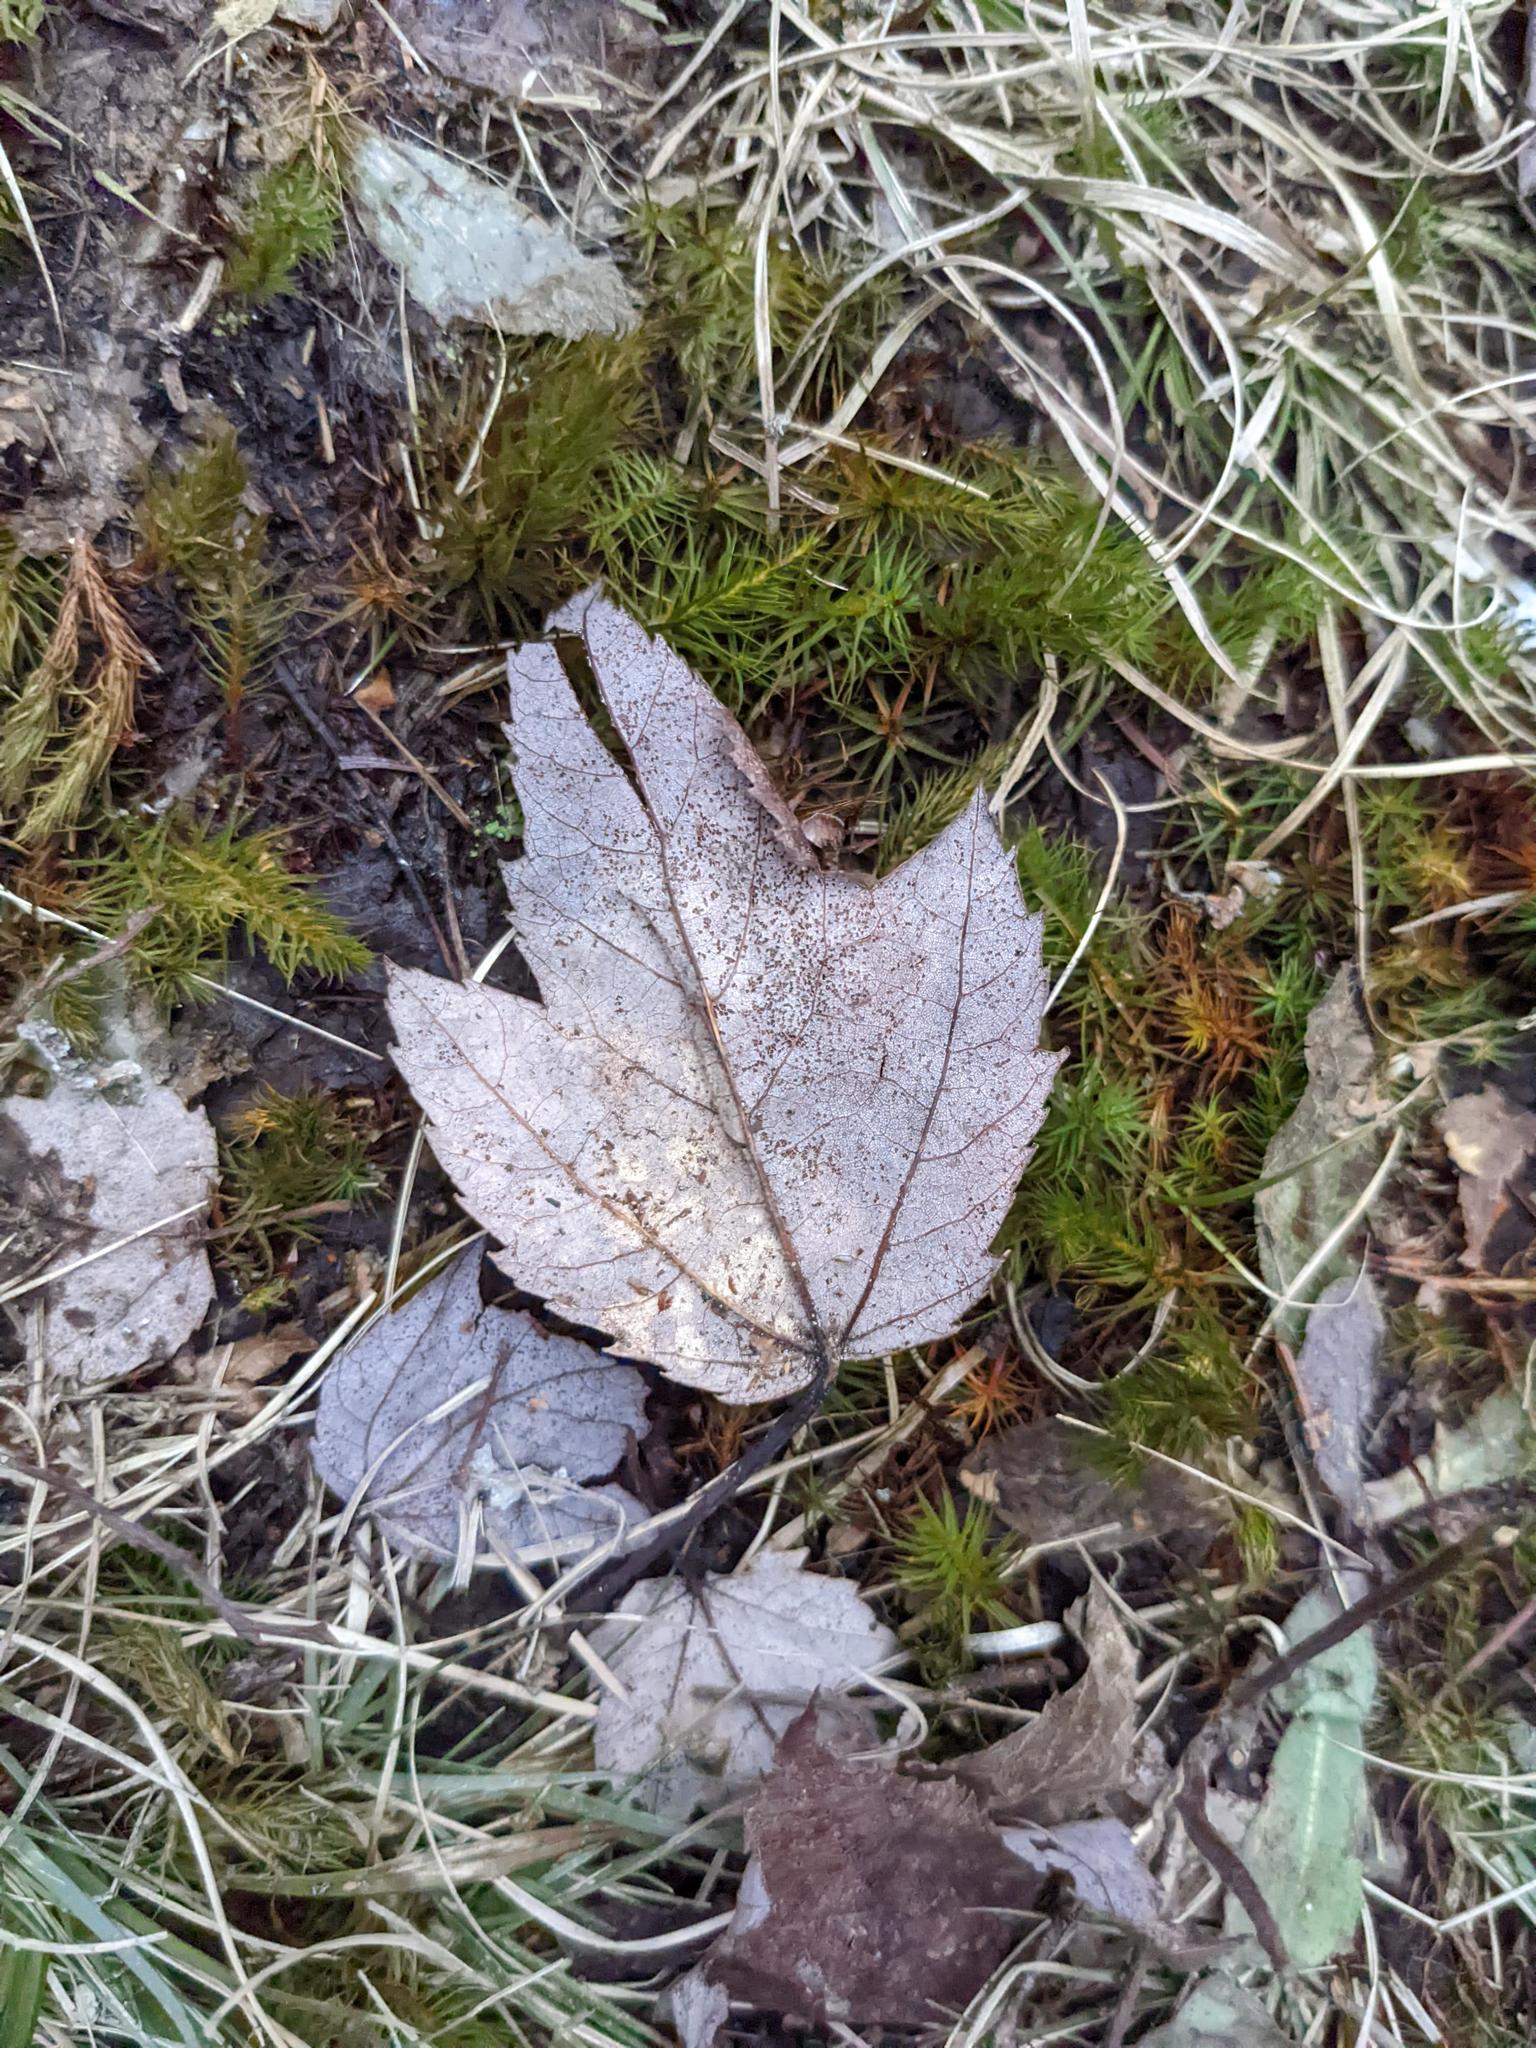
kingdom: Plantae
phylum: Tracheophyta
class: Magnoliopsida
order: Sapindales
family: Sapindaceae
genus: Acer
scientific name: Acer rubrum
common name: Red maple
